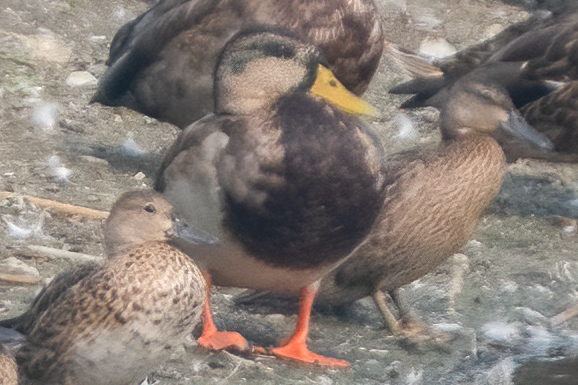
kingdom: Animalia
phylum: Chordata
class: Aves
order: Anseriformes
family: Anatidae
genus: Anas
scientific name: Anas platyrhynchos
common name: Mallard
